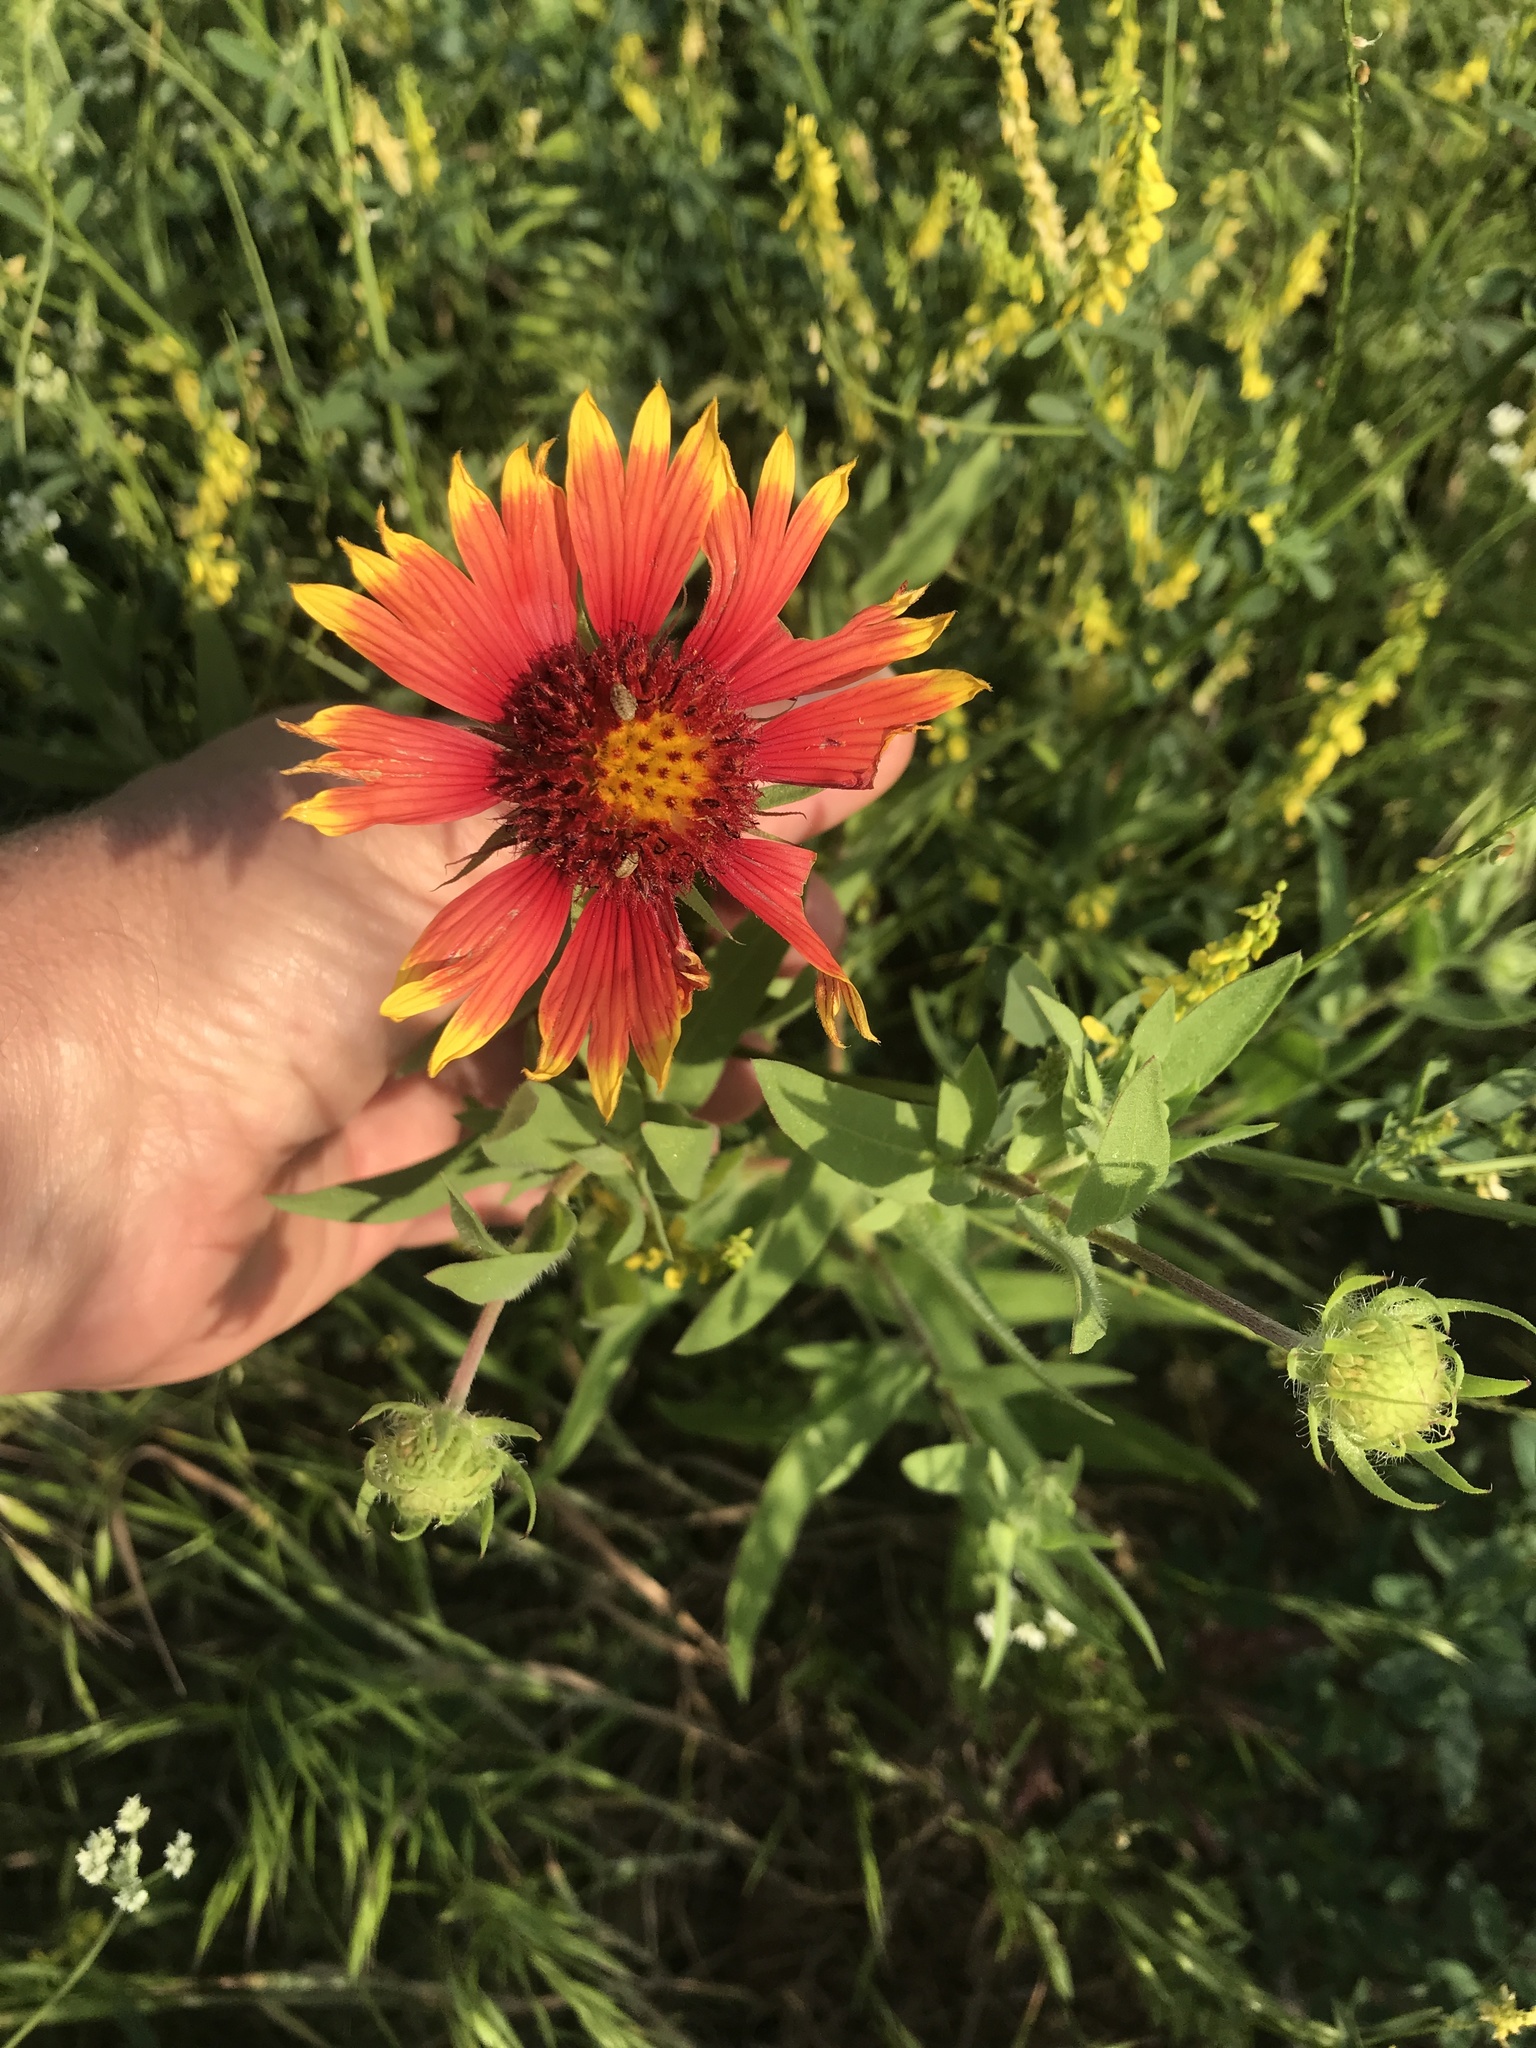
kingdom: Plantae
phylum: Tracheophyta
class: Magnoliopsida
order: Asterales
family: Asteraceae
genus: Gaillardia
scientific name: Gaillardia pulchella
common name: Firewheel
